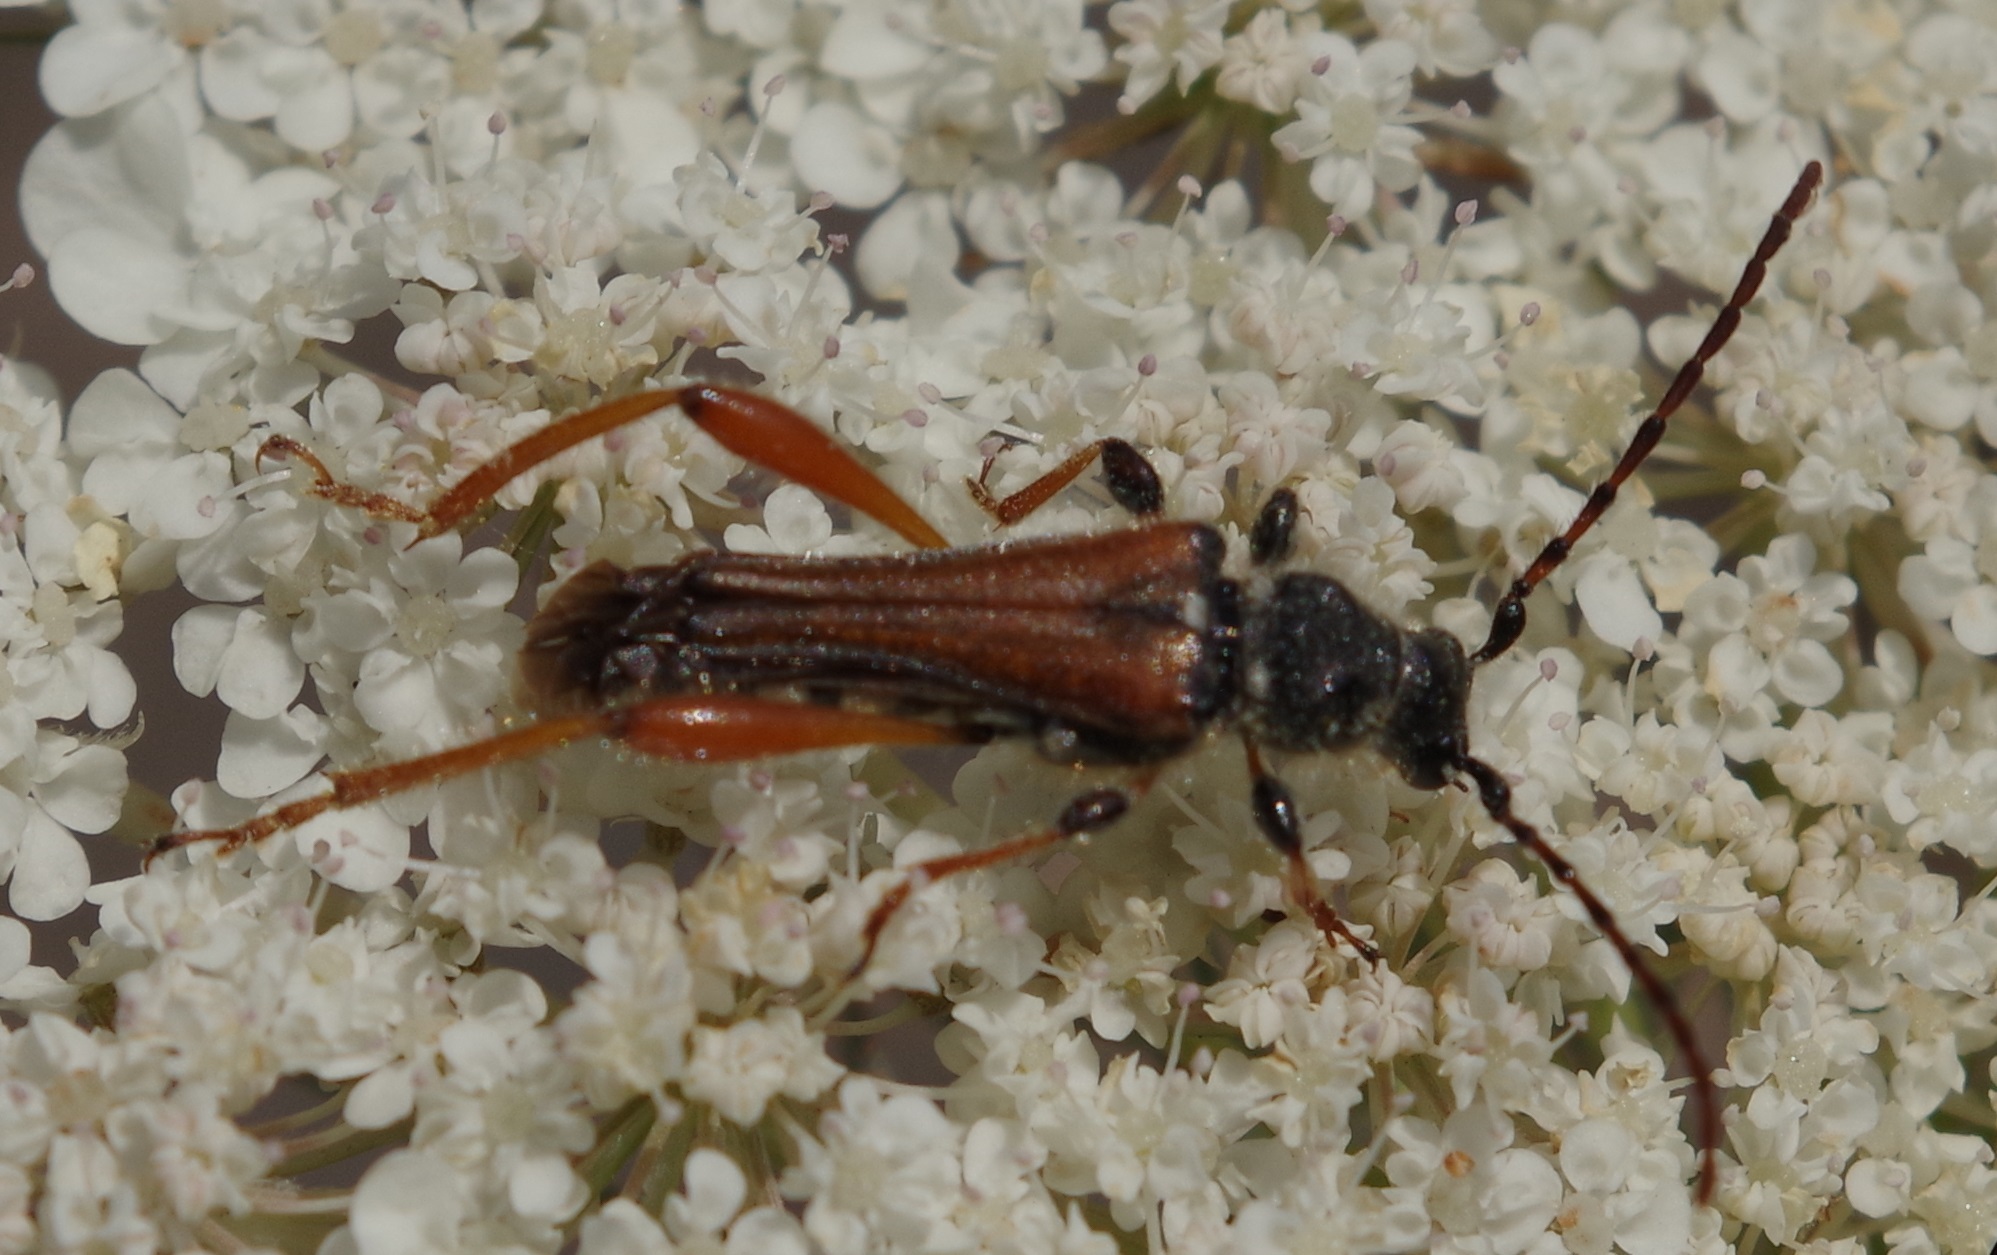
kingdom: Animalia
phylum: Arthropoda
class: Insecta
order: Coleoptera
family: Cerambycidae
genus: Stenopterus
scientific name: Stenopterus rufus
